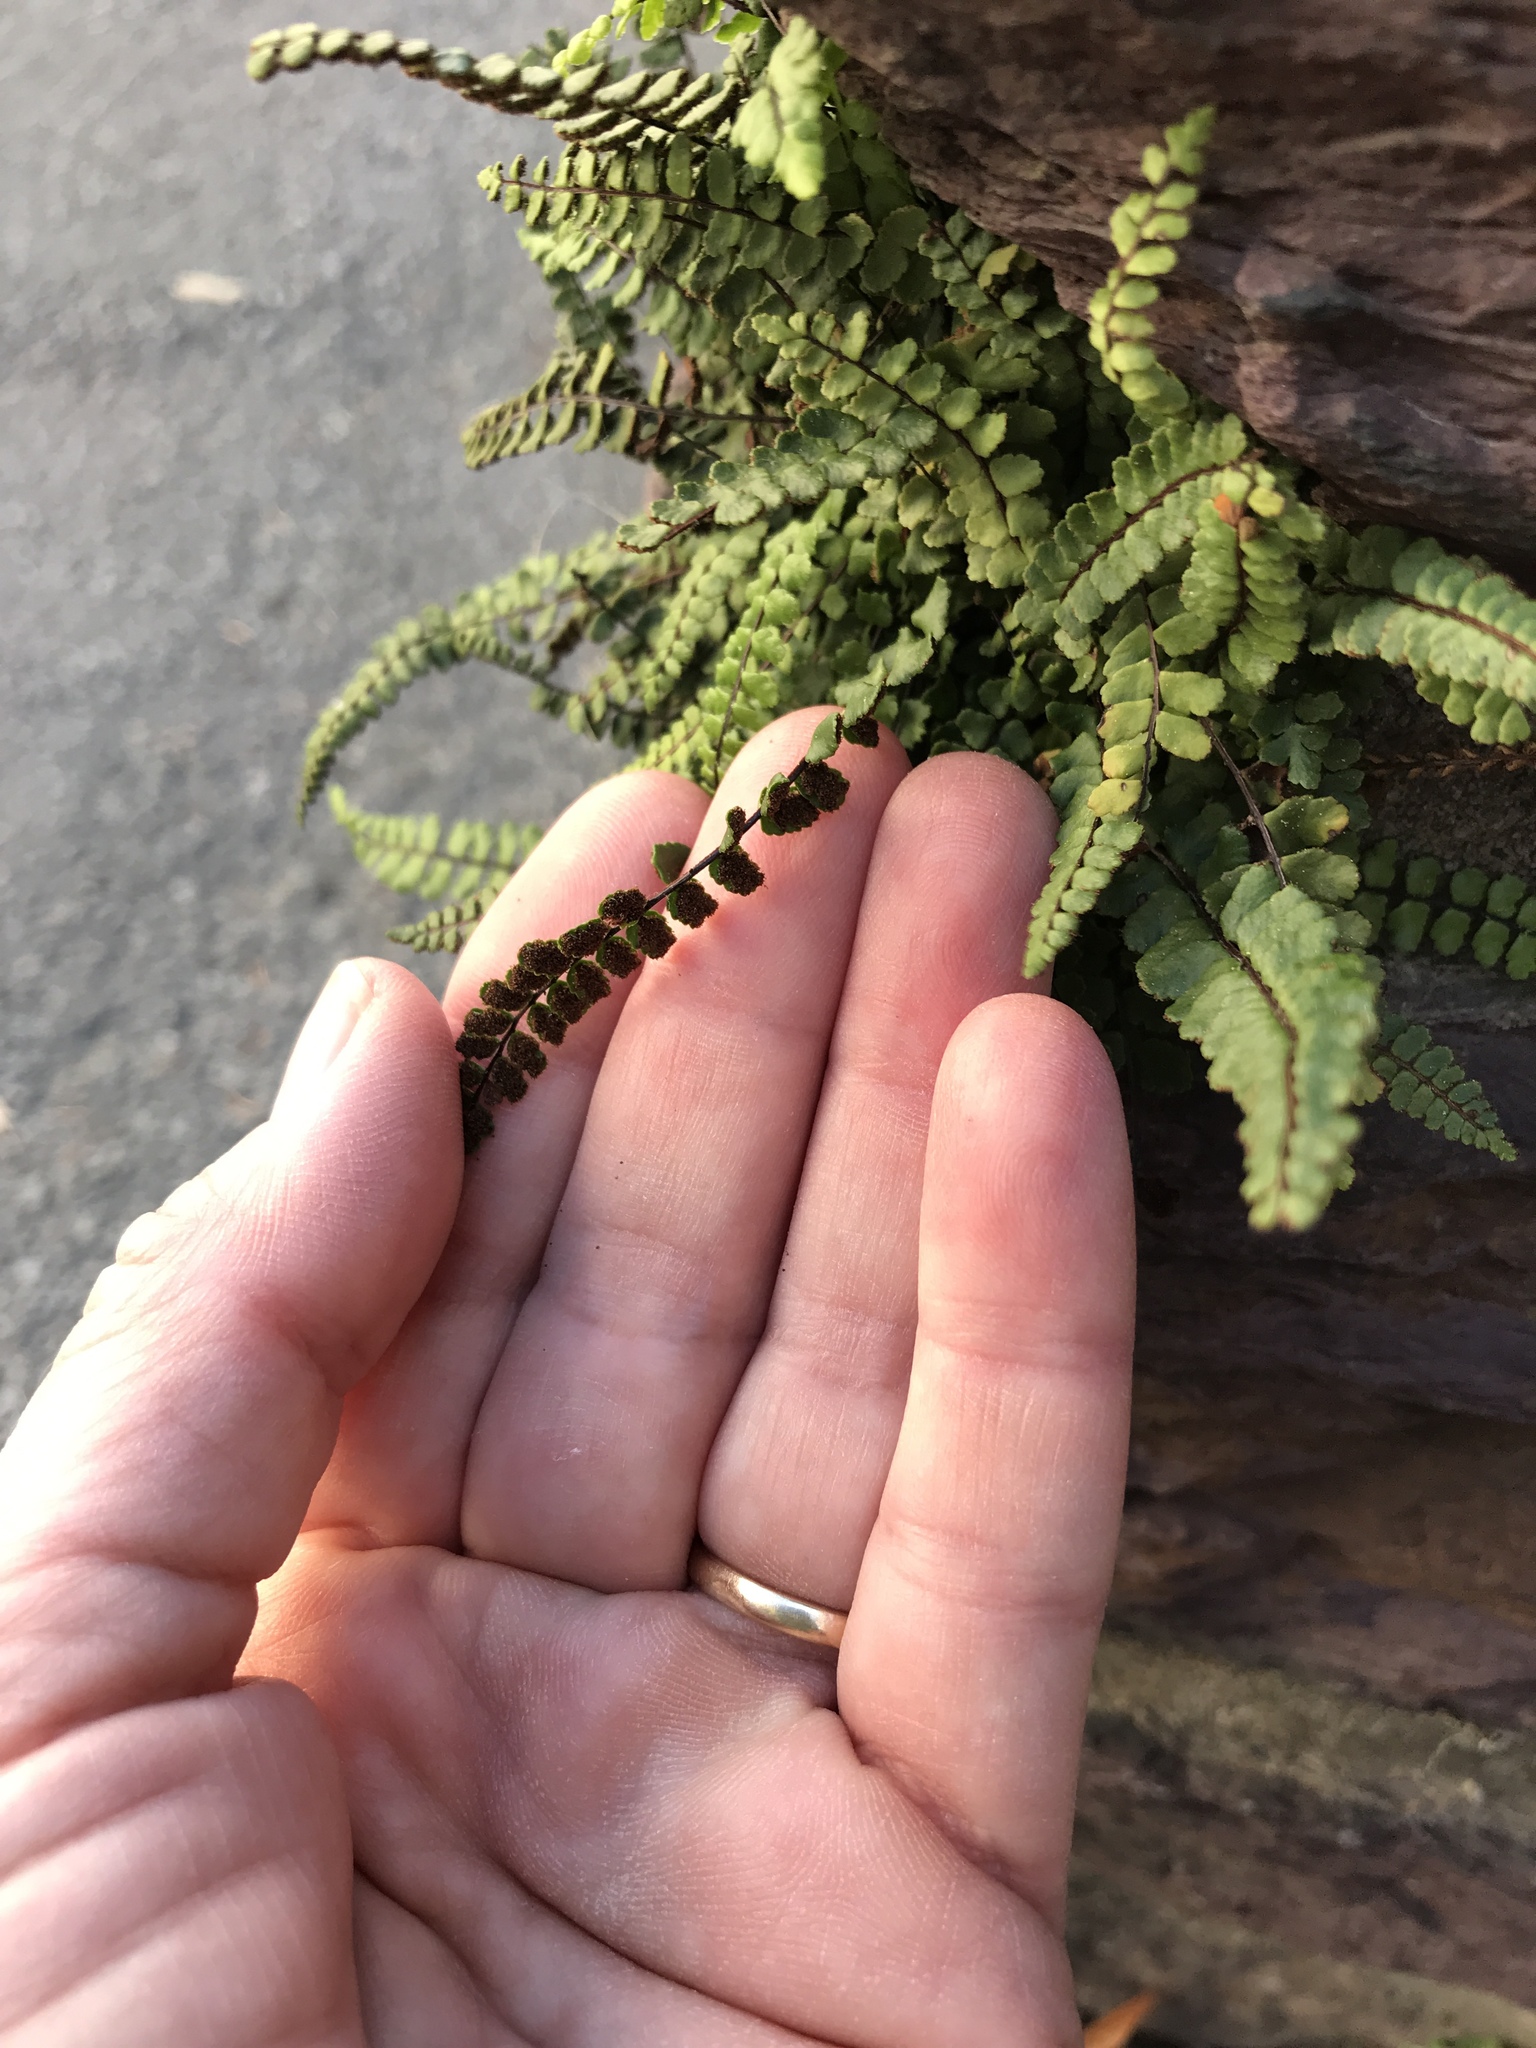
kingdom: Plantae
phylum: Tracheophyta
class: Polypodiopsida
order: Polypodiales
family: Aspleniaceae
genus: Asplenium
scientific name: Asplenium trichomanes
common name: Maidenhair spleenwort
